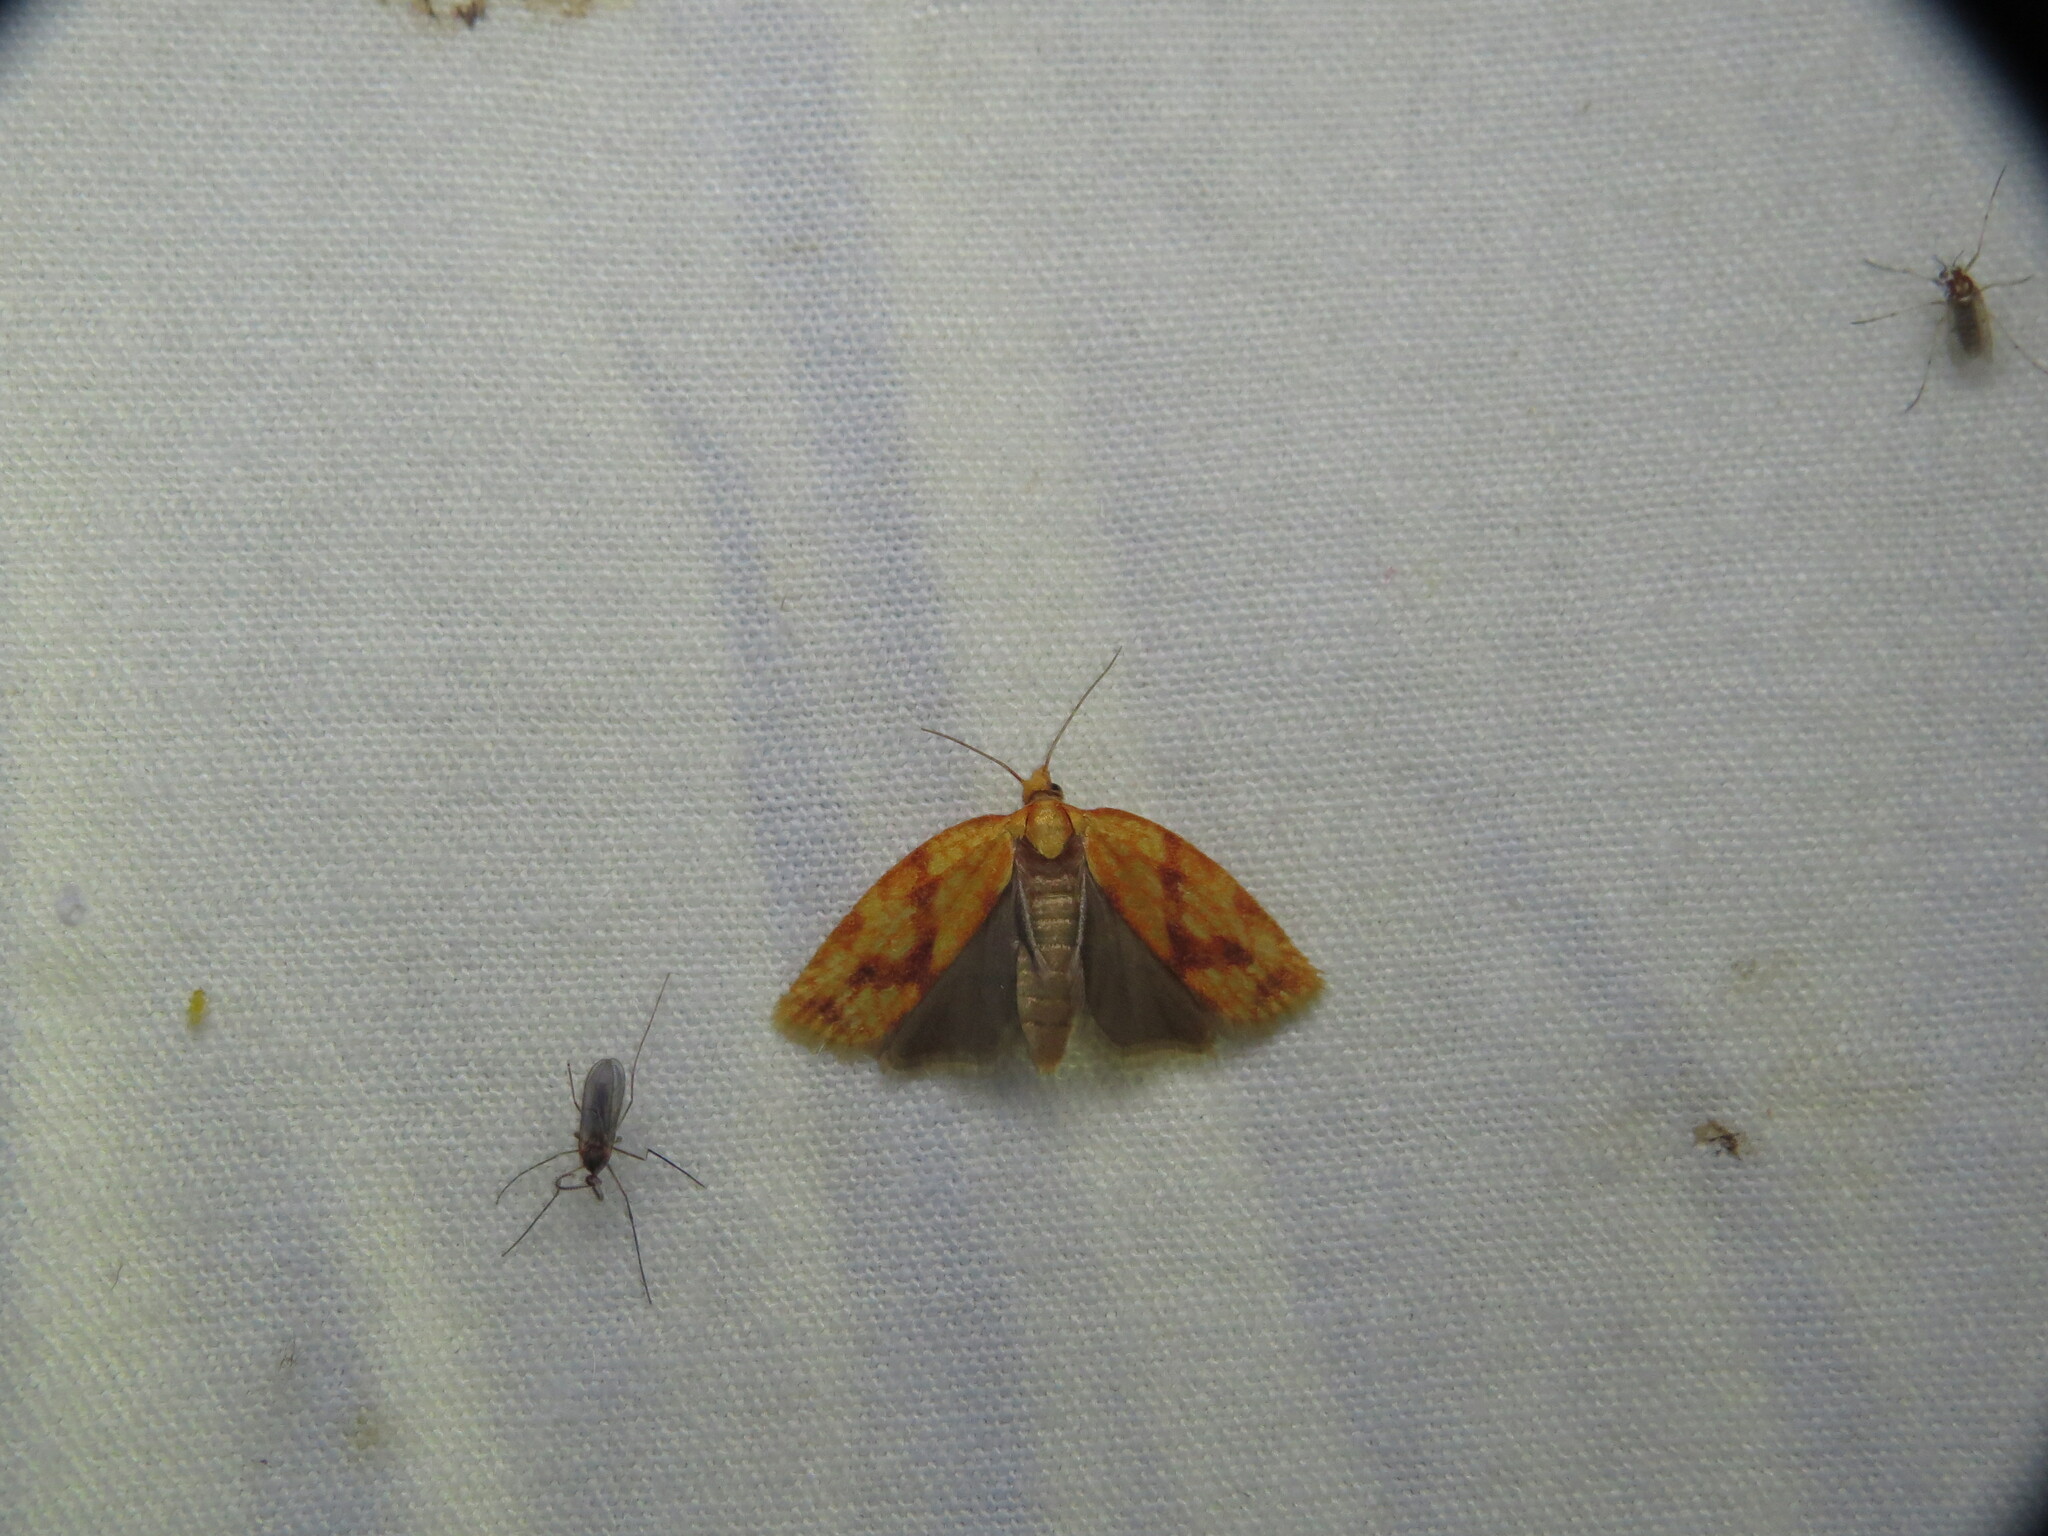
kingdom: Animalia
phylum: Arthropoda
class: Insecta
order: Lepidoptera
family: Tortricidae
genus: Sparganothis
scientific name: Sparganothis sulfureana
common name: Sparganothis fruitworm moth
